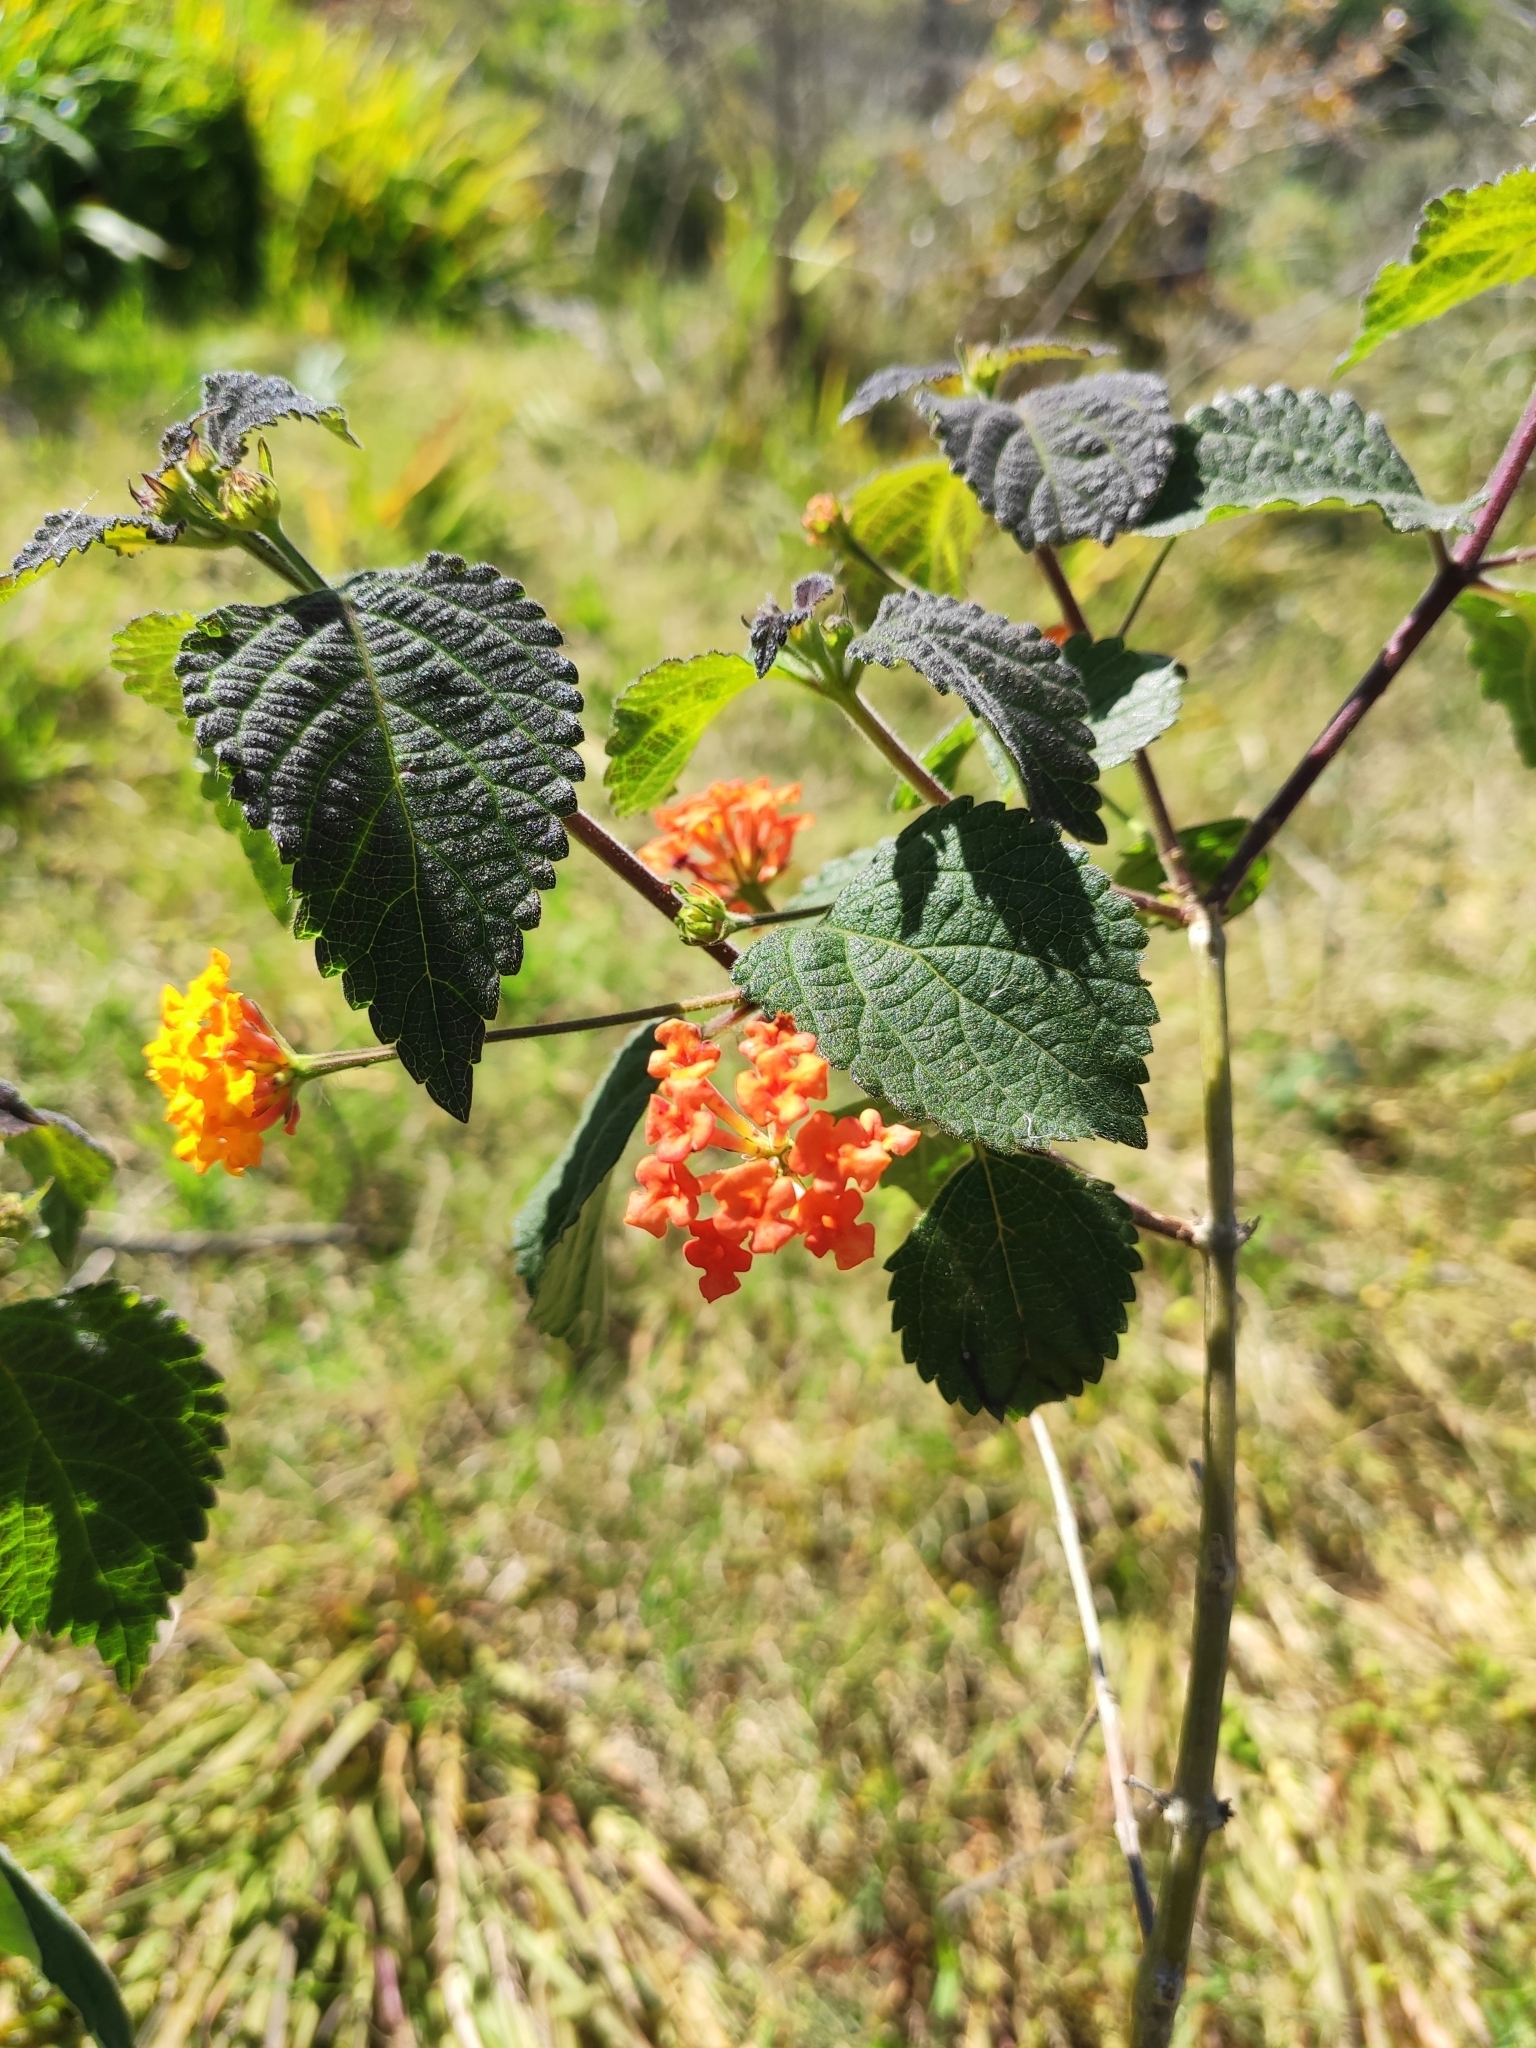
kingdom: Plantae
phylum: Tracheophyta
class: Magnoliopsida
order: Lamiales
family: Verbenaceae
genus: Lantana
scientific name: Lantana camara
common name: Lantana
